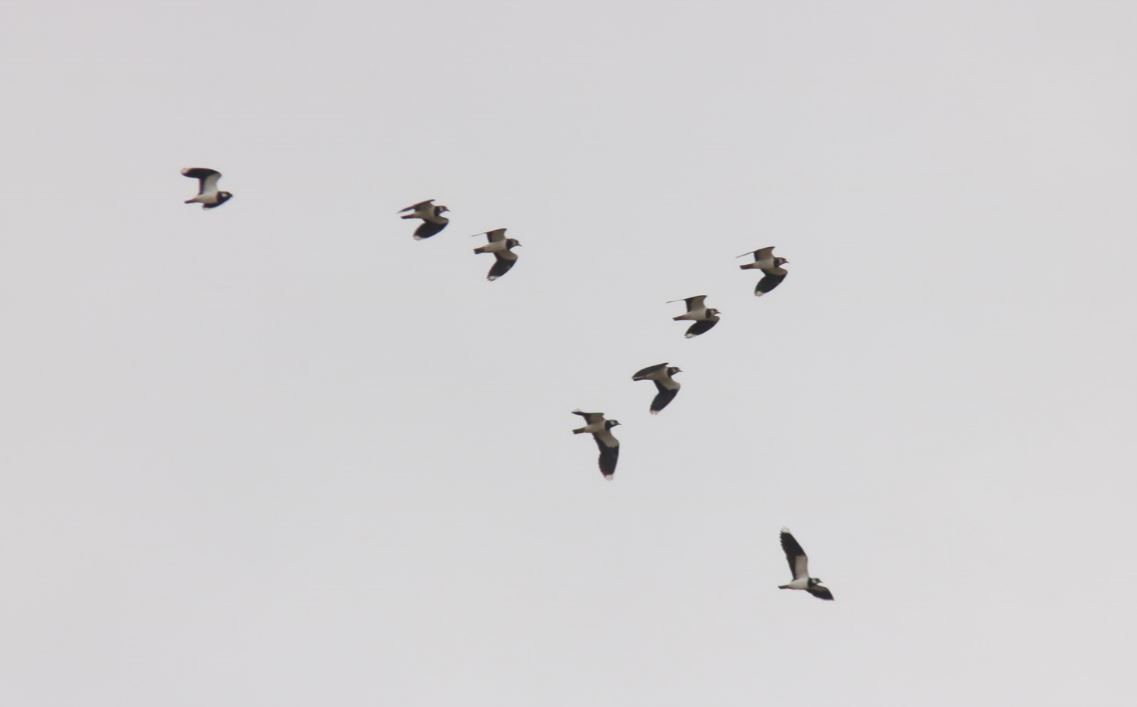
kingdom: Animalia
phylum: Chordata
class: Aves
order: Charadriiformes
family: Charadriidae
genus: Vanellus
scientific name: Vanellus vanellus
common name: Northern lapwing
